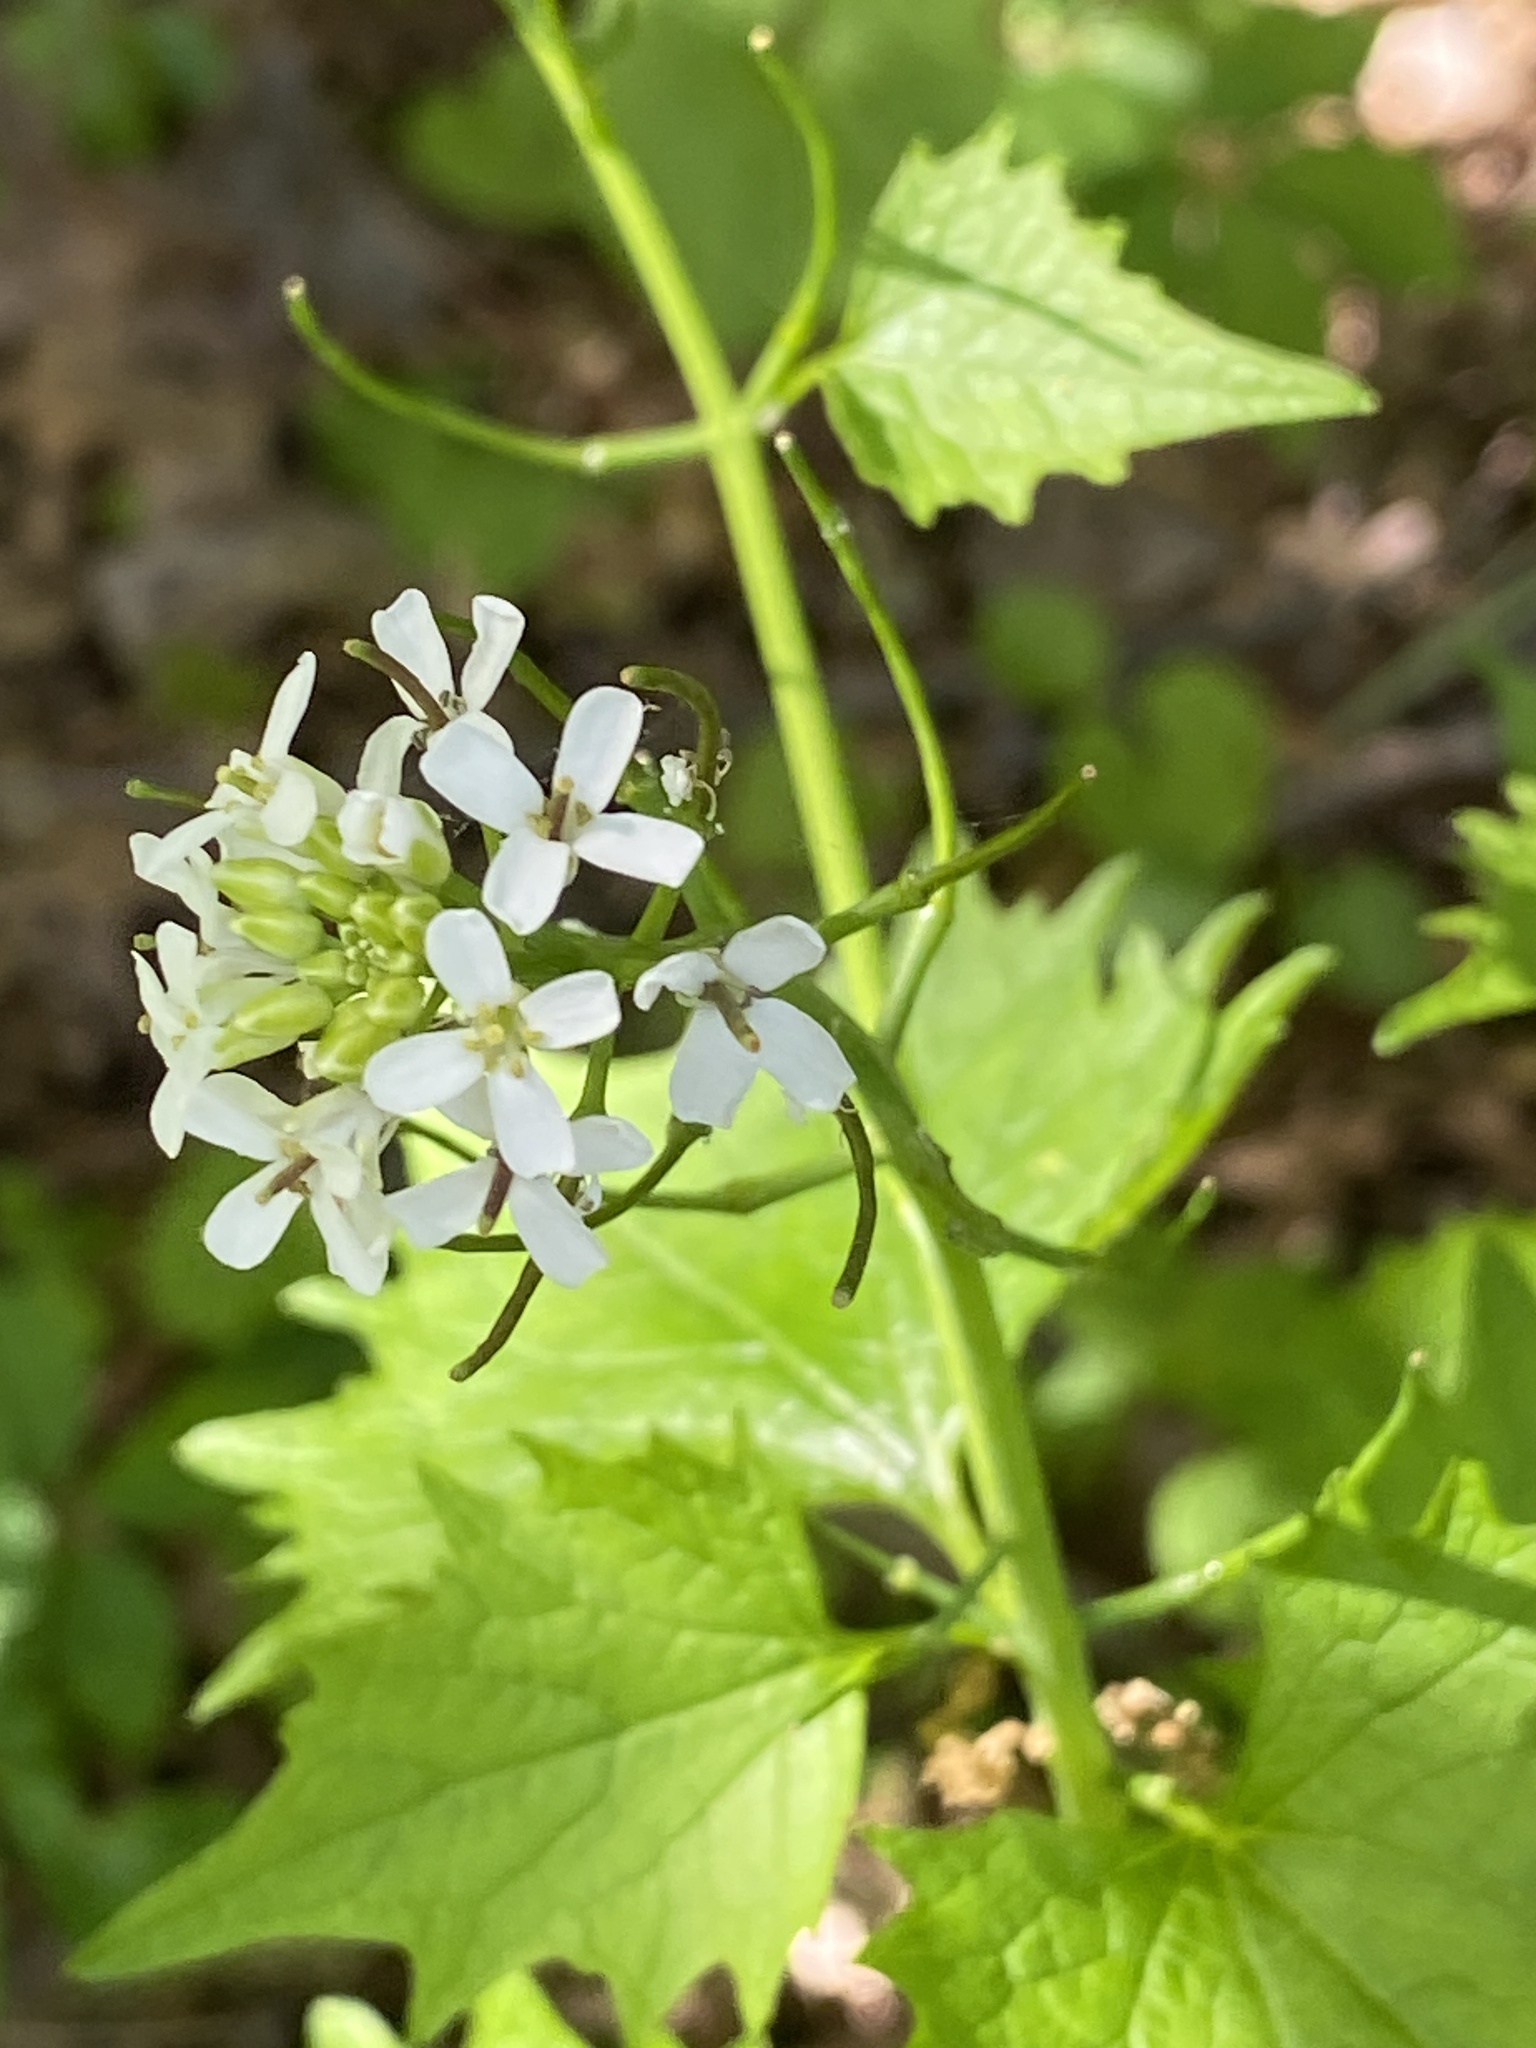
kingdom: Plantae
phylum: Tracheophyta
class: Magnoliopsida
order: Brassicales
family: Brassicaceae
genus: Alliaria
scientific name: Alliaria petiolata
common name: Garlic mustard
